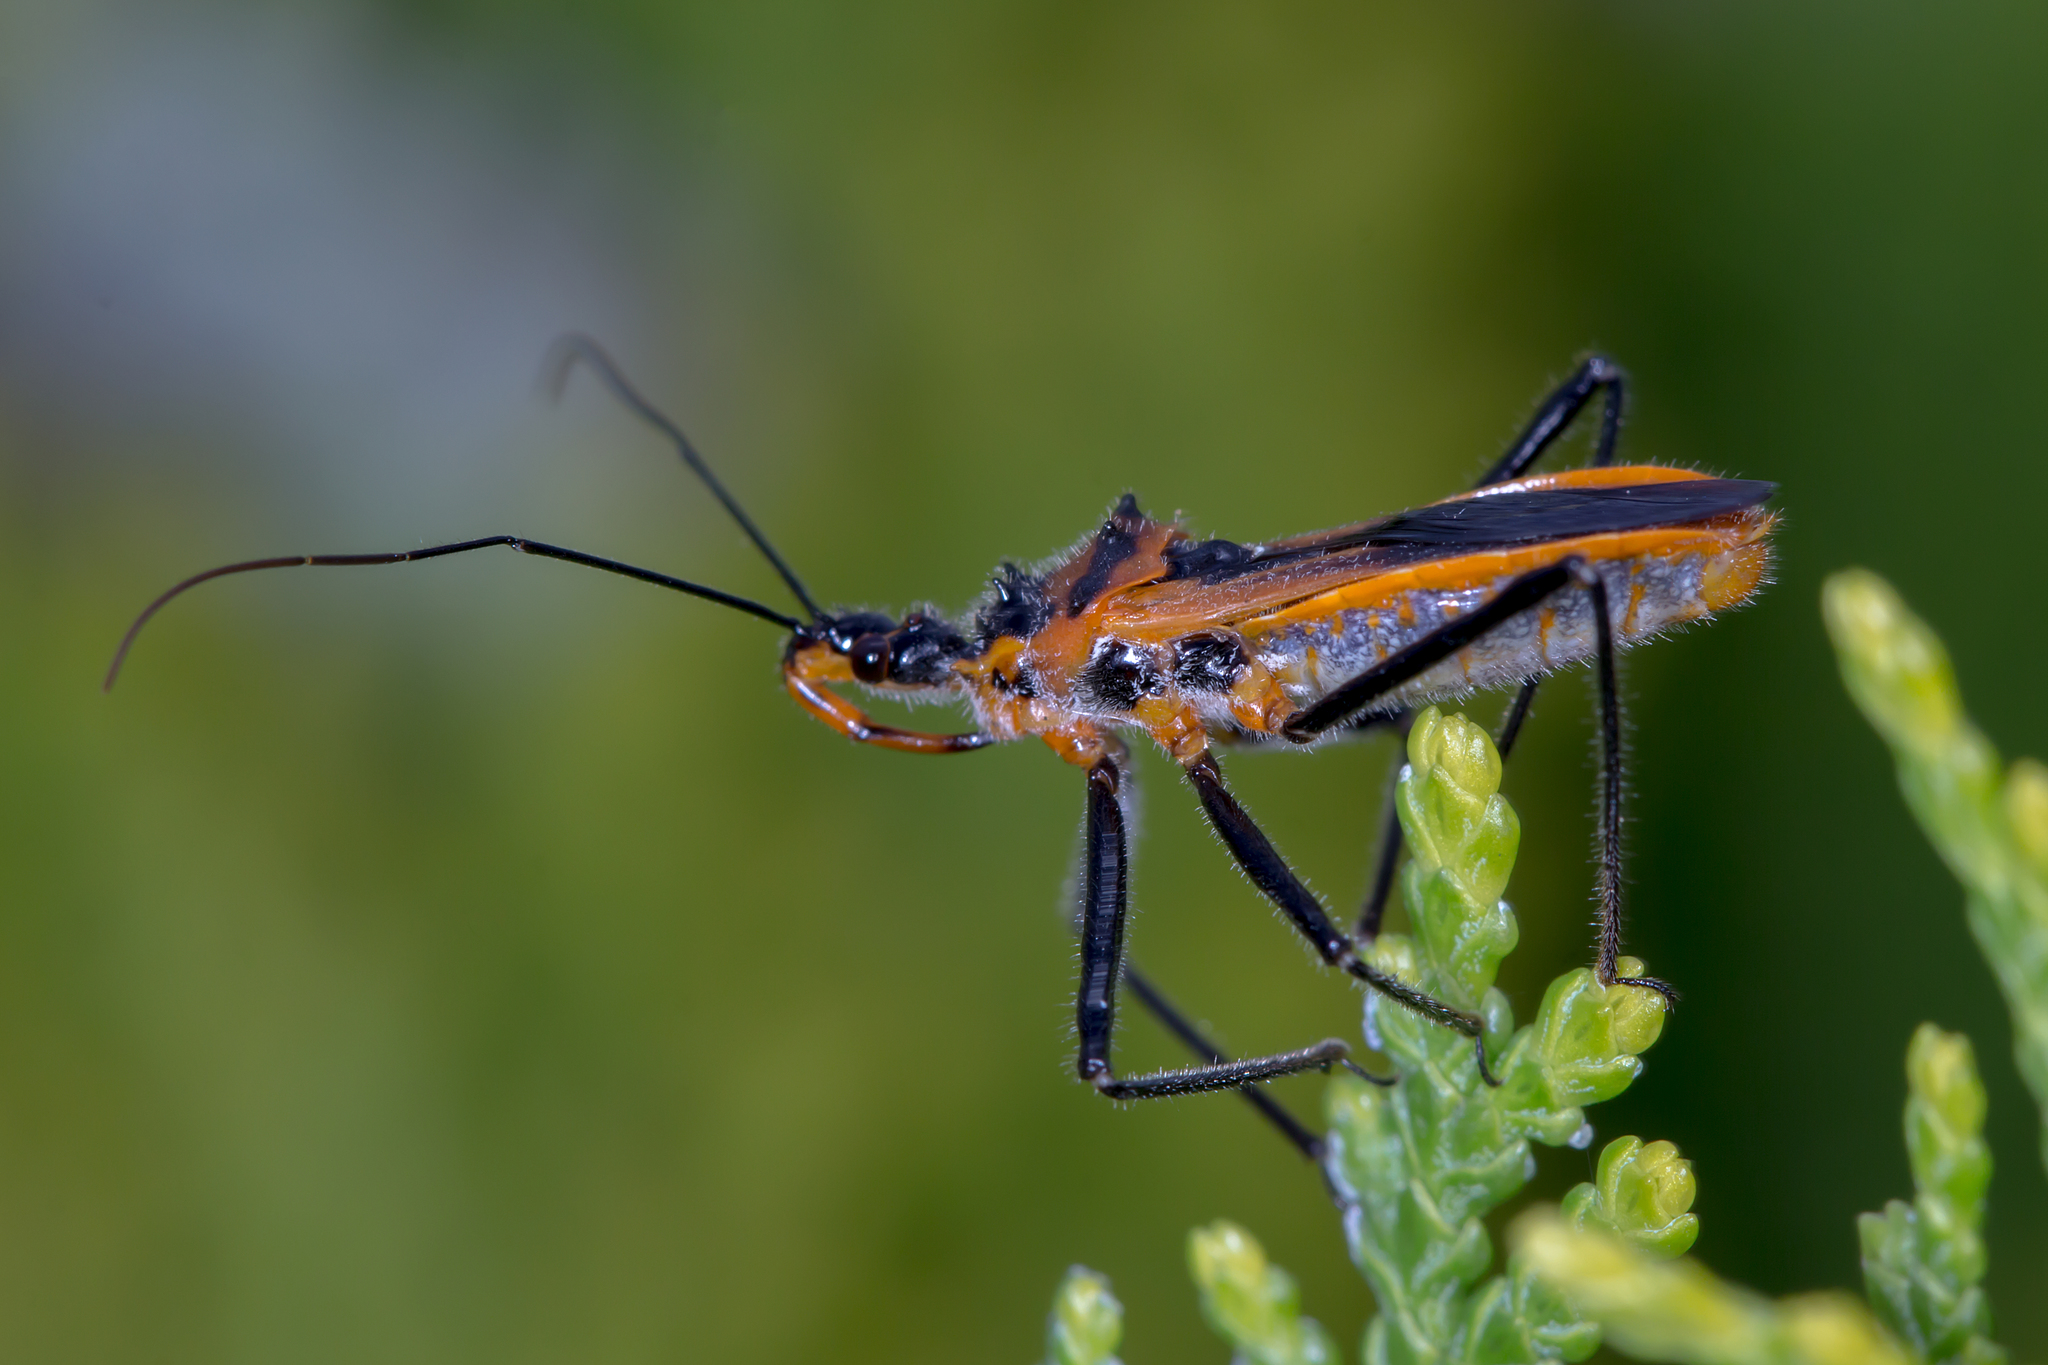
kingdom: Animalia
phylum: Arthropoda
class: Insecta
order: Hemiptera
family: Reduviidae
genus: Gminatus
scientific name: Gminatus australis
